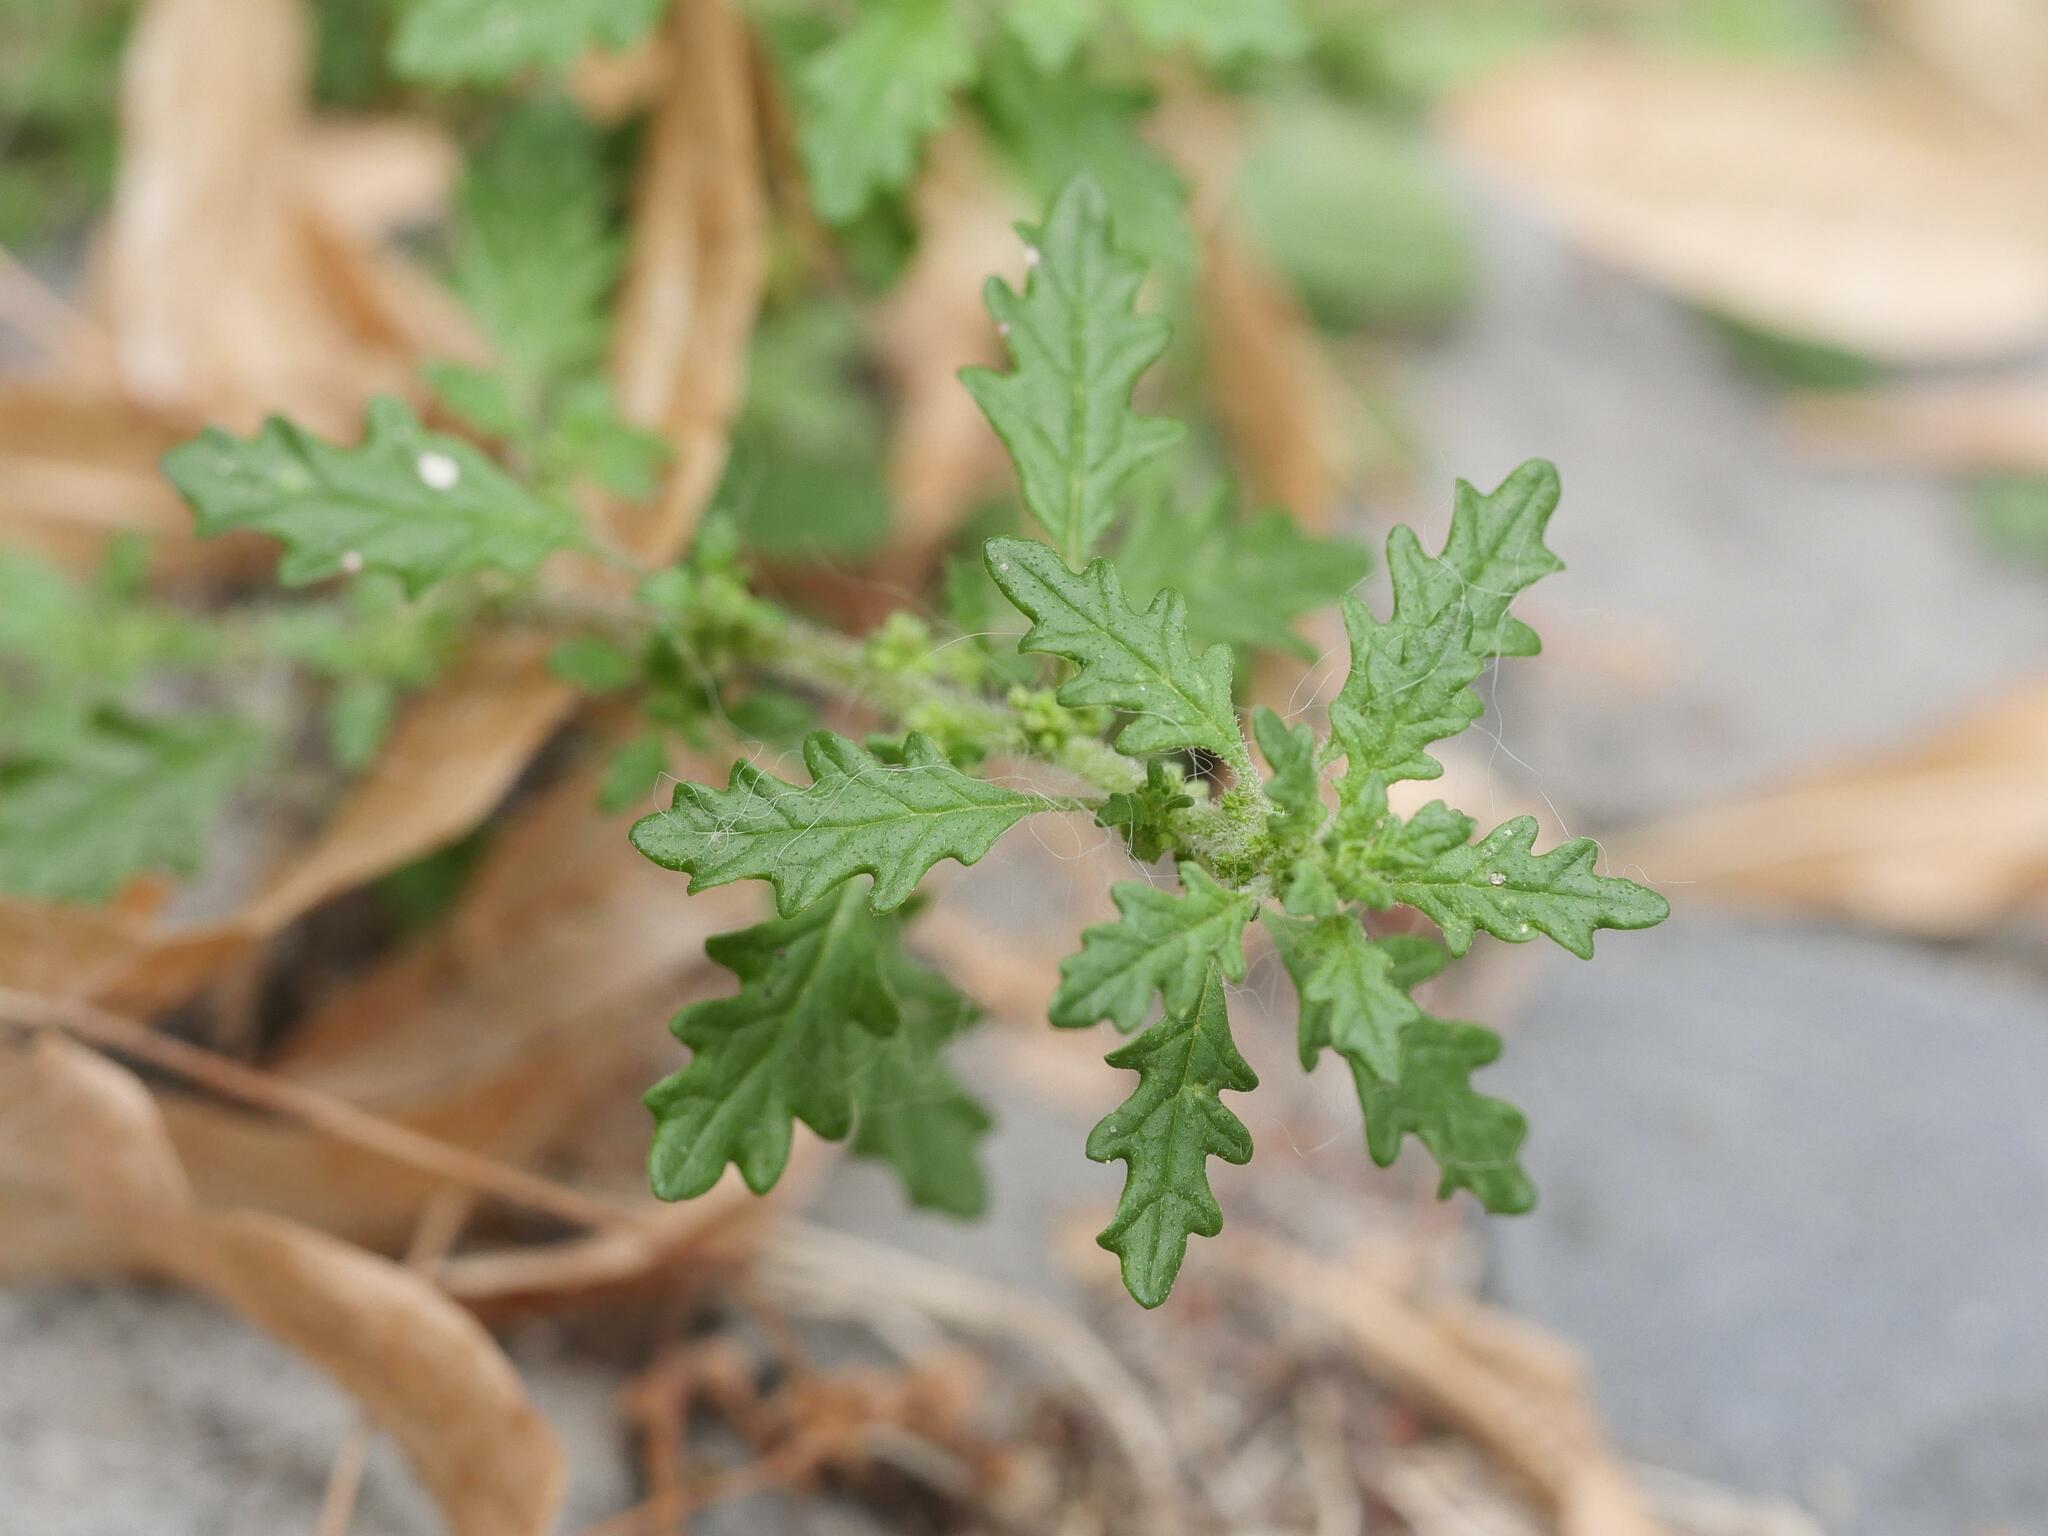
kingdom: Plantae
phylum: Tracheophyta
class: Magnoliopsida
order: Caryophyllales
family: Amaranthaceae
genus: Dysphania
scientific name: Dysphania pumilio
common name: Clammy goosefoot
